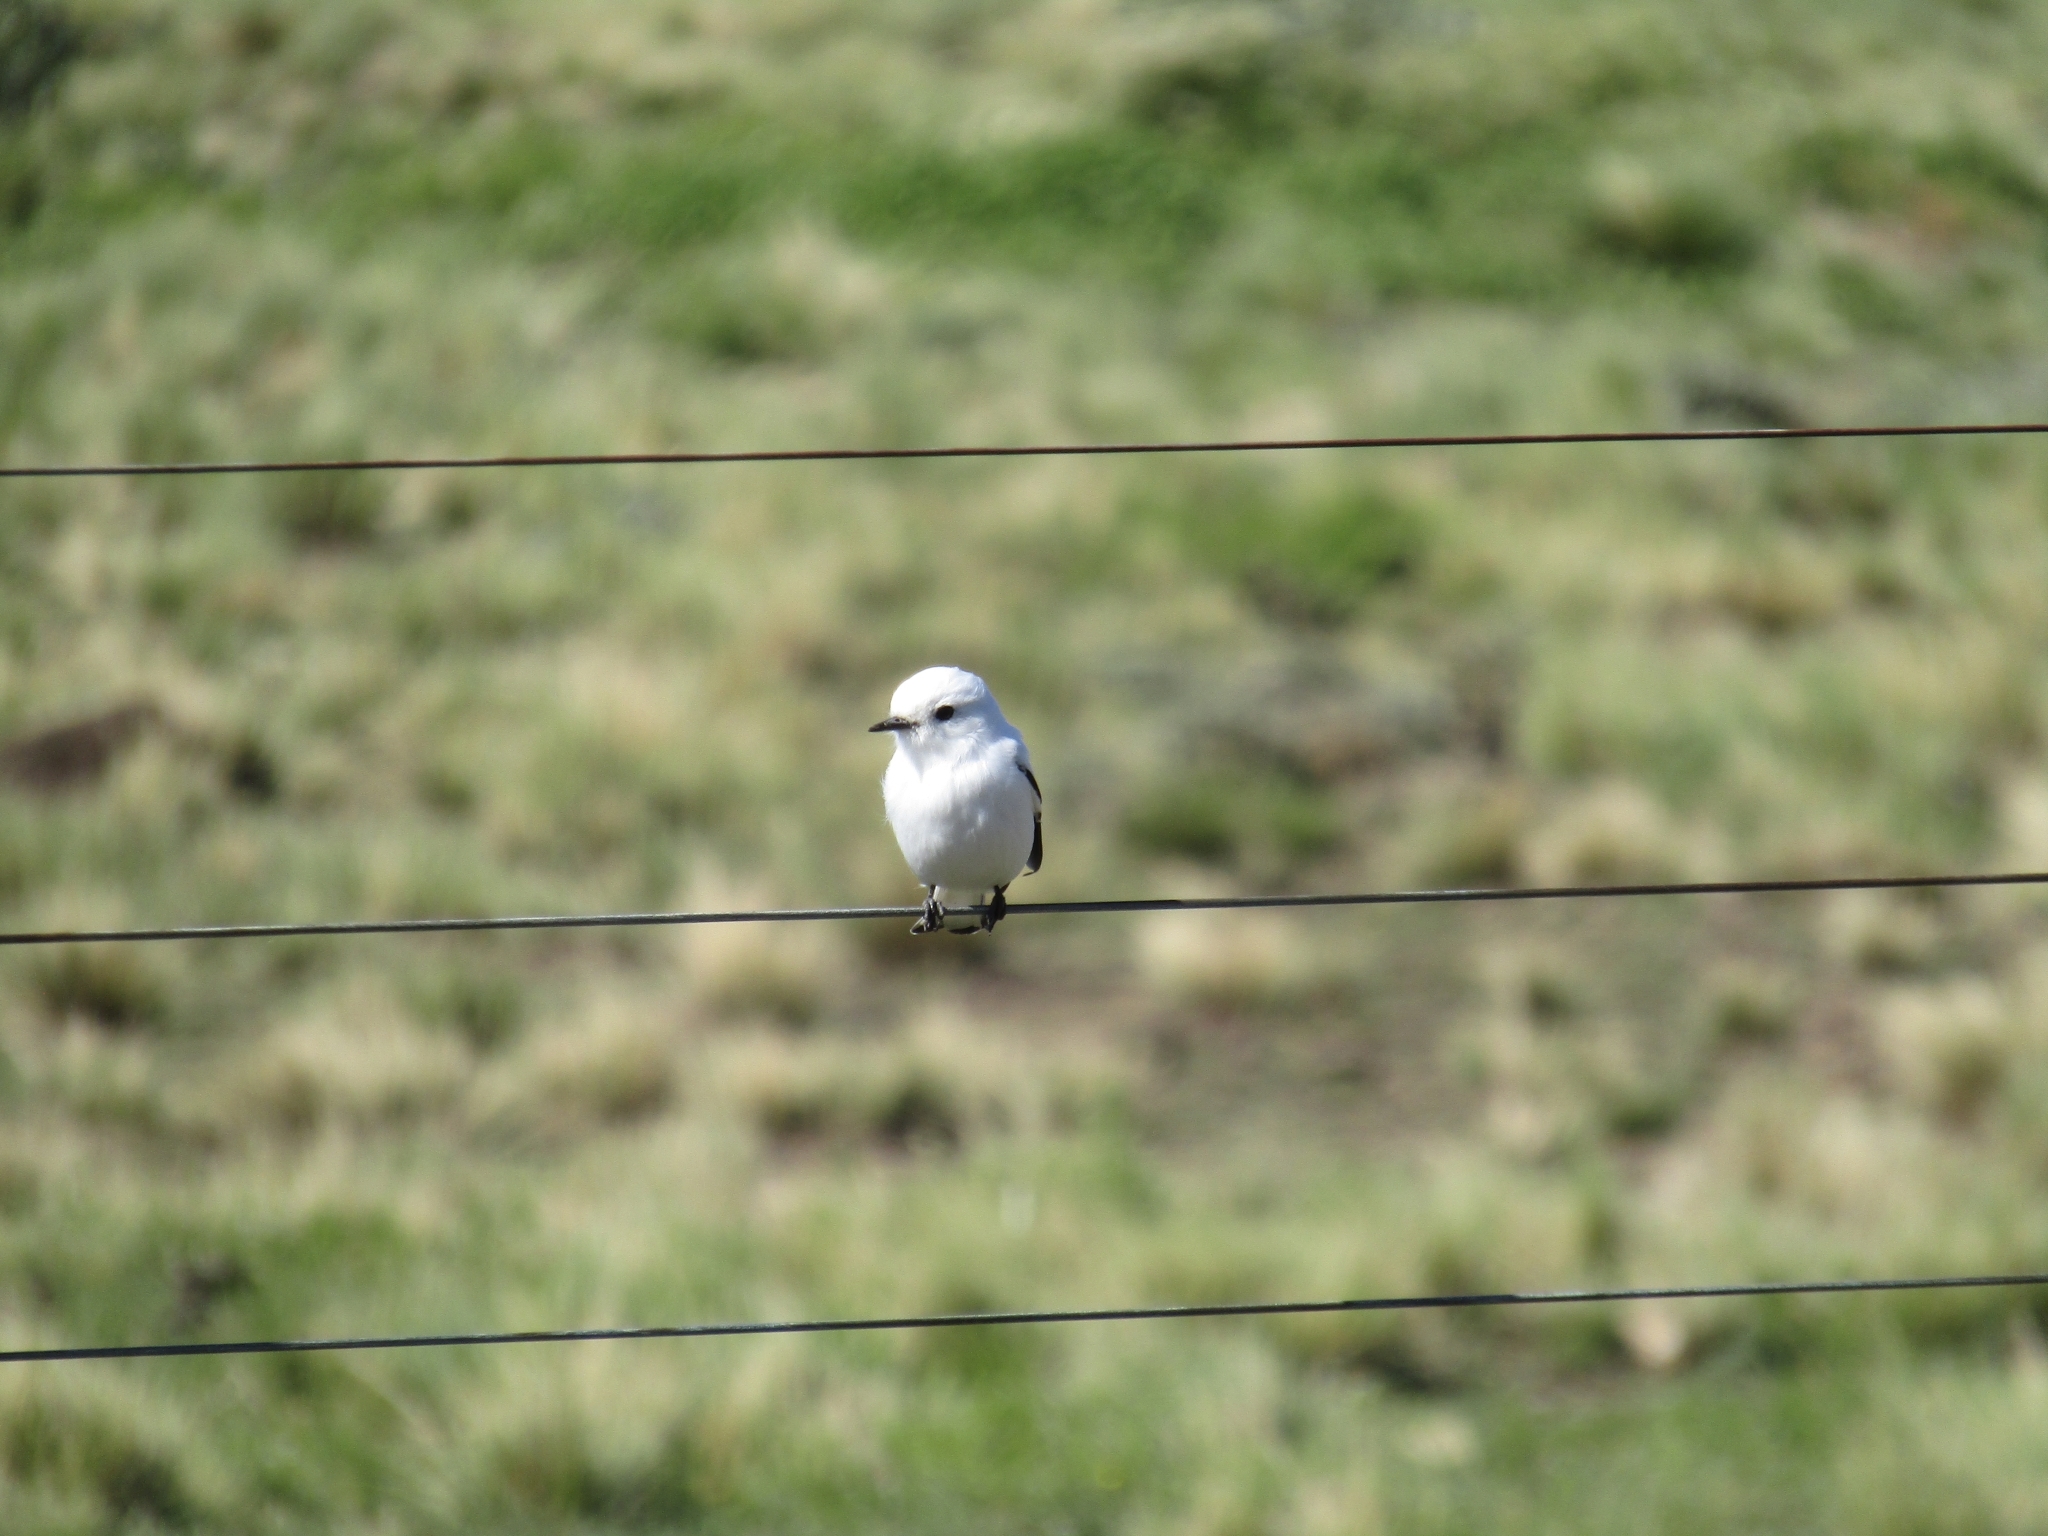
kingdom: Animalia
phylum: Chordata
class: Aves
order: Passeriformes
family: Tyrannidae
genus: Xolmis
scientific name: Xolmis irupero
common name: White monjita
